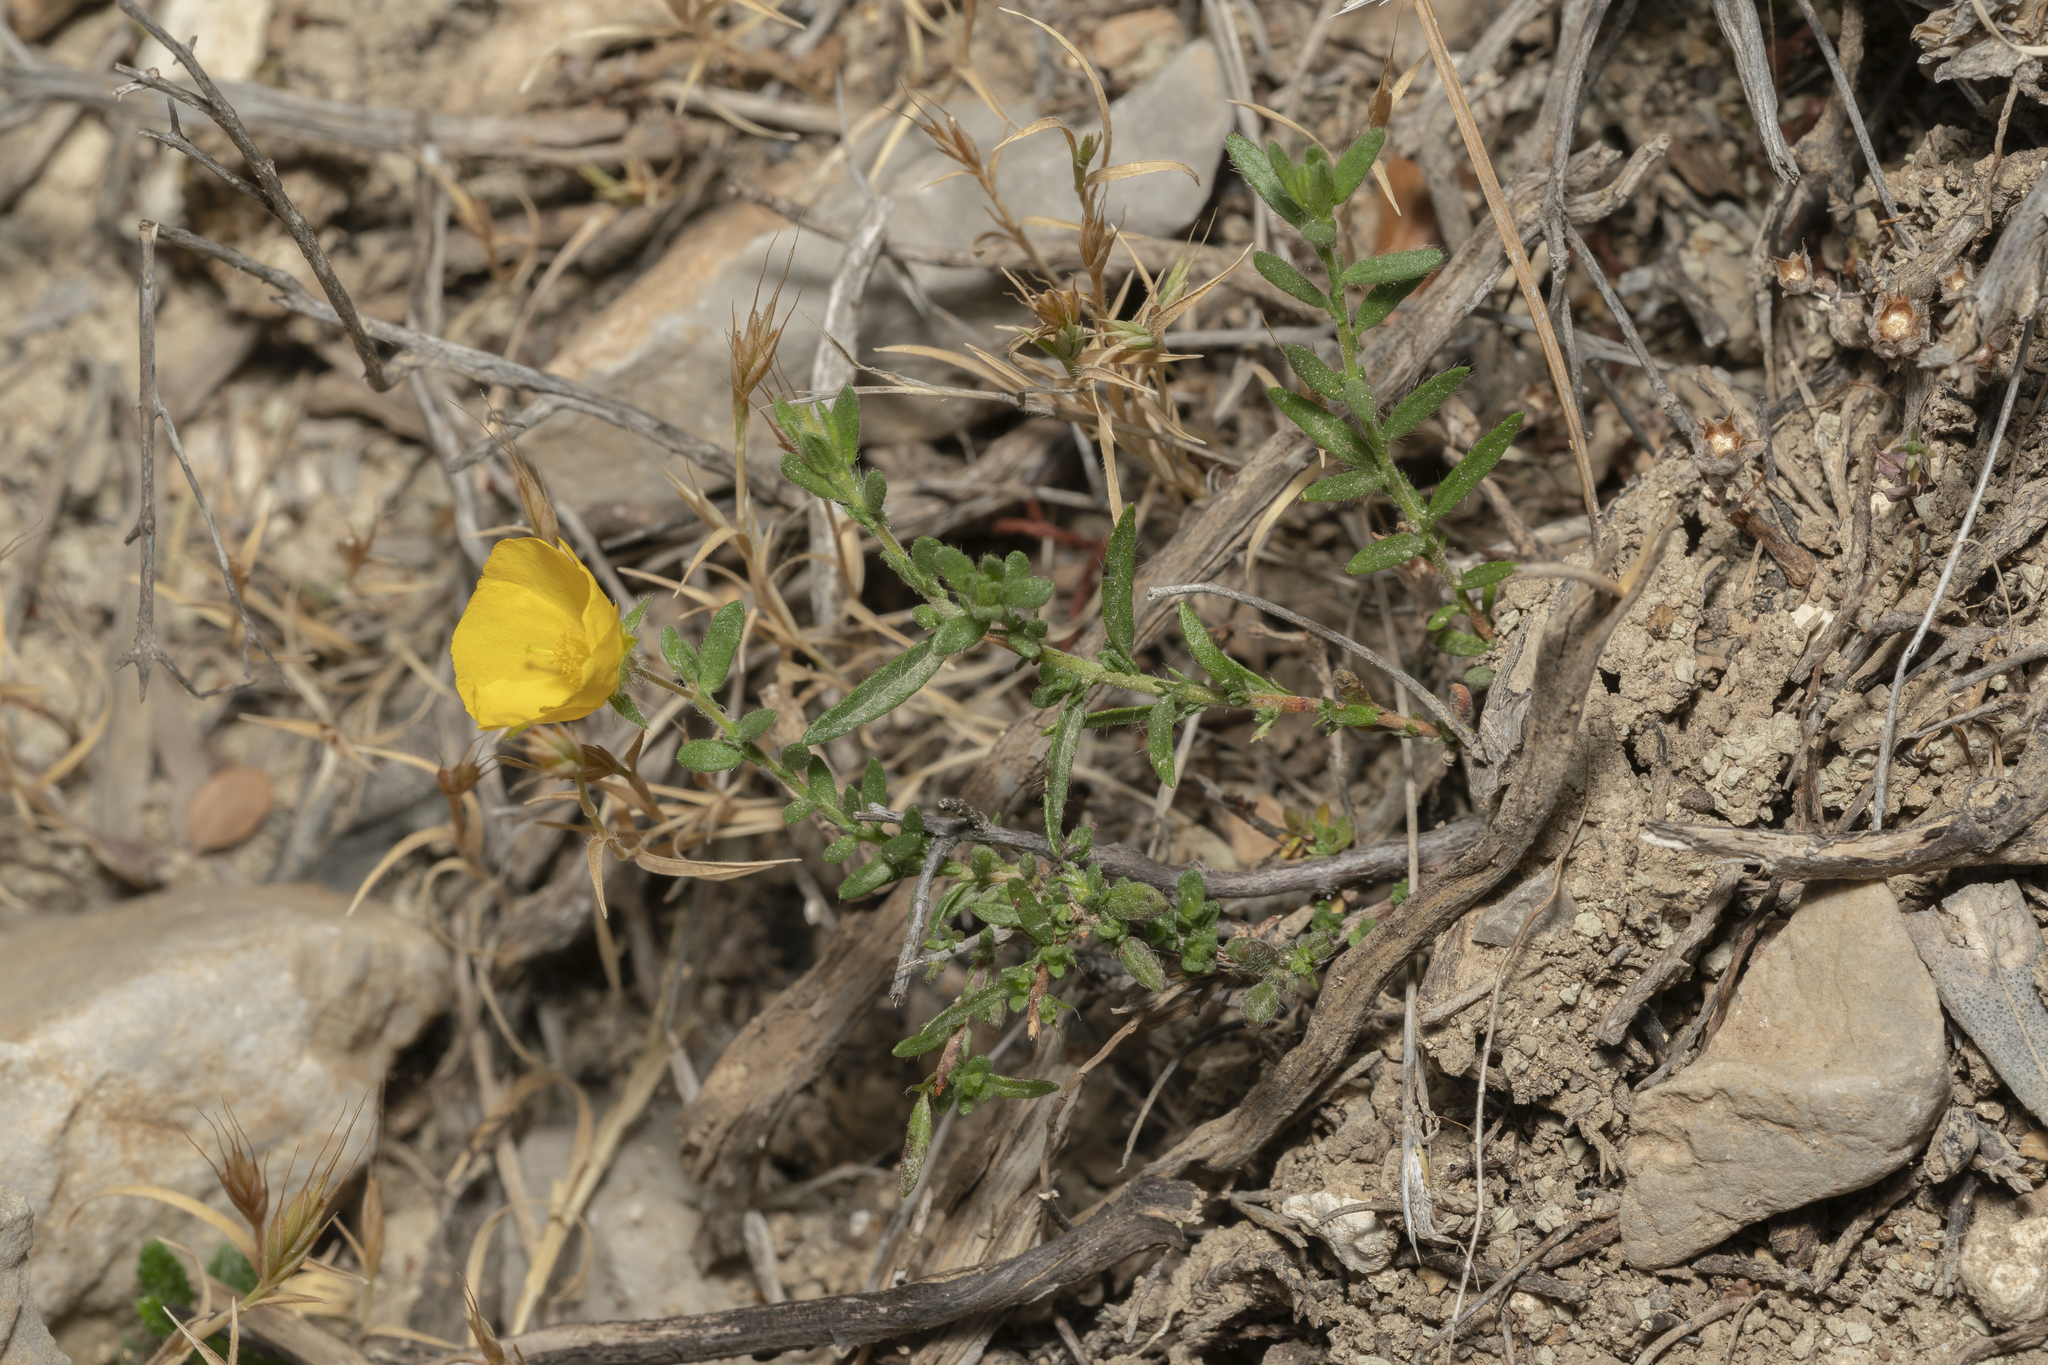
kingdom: Plantae
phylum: Tracheophyta
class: Magnoliopsida
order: Malvales
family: Cistaceae
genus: Fumana
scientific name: Fumana arabica
